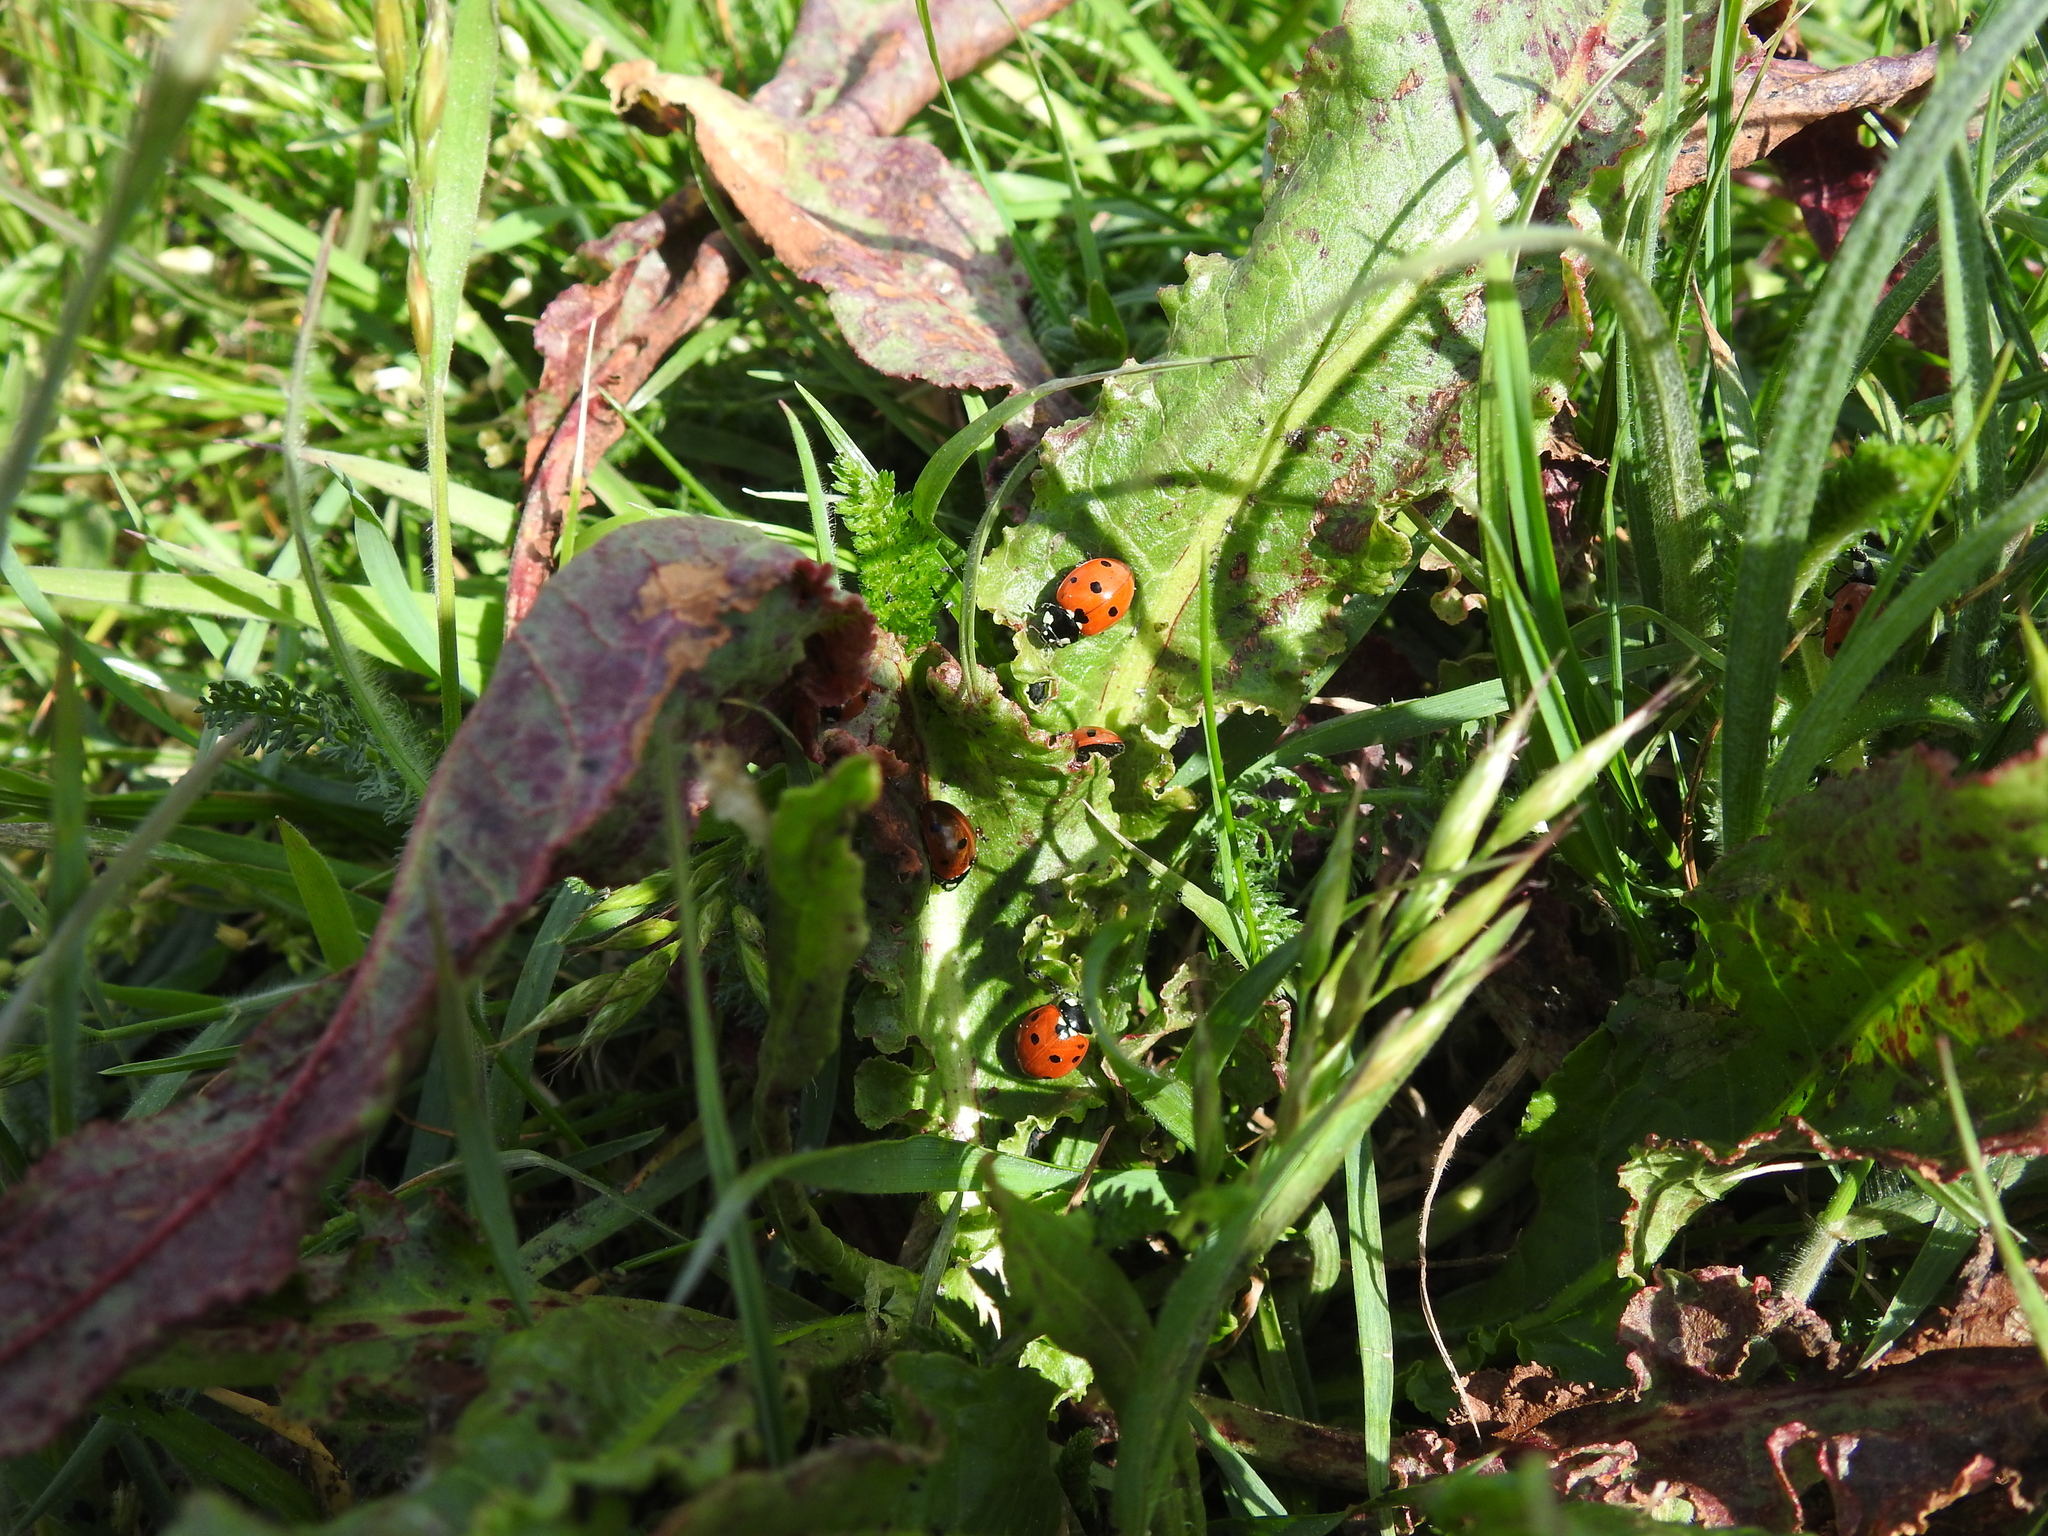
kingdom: Animalia
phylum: Arthropoda
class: Insecta
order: Coleoptera
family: Coccinellidae
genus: Coccinella
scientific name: Coccinella septempunctata
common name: Sevenspotted lady beetle
